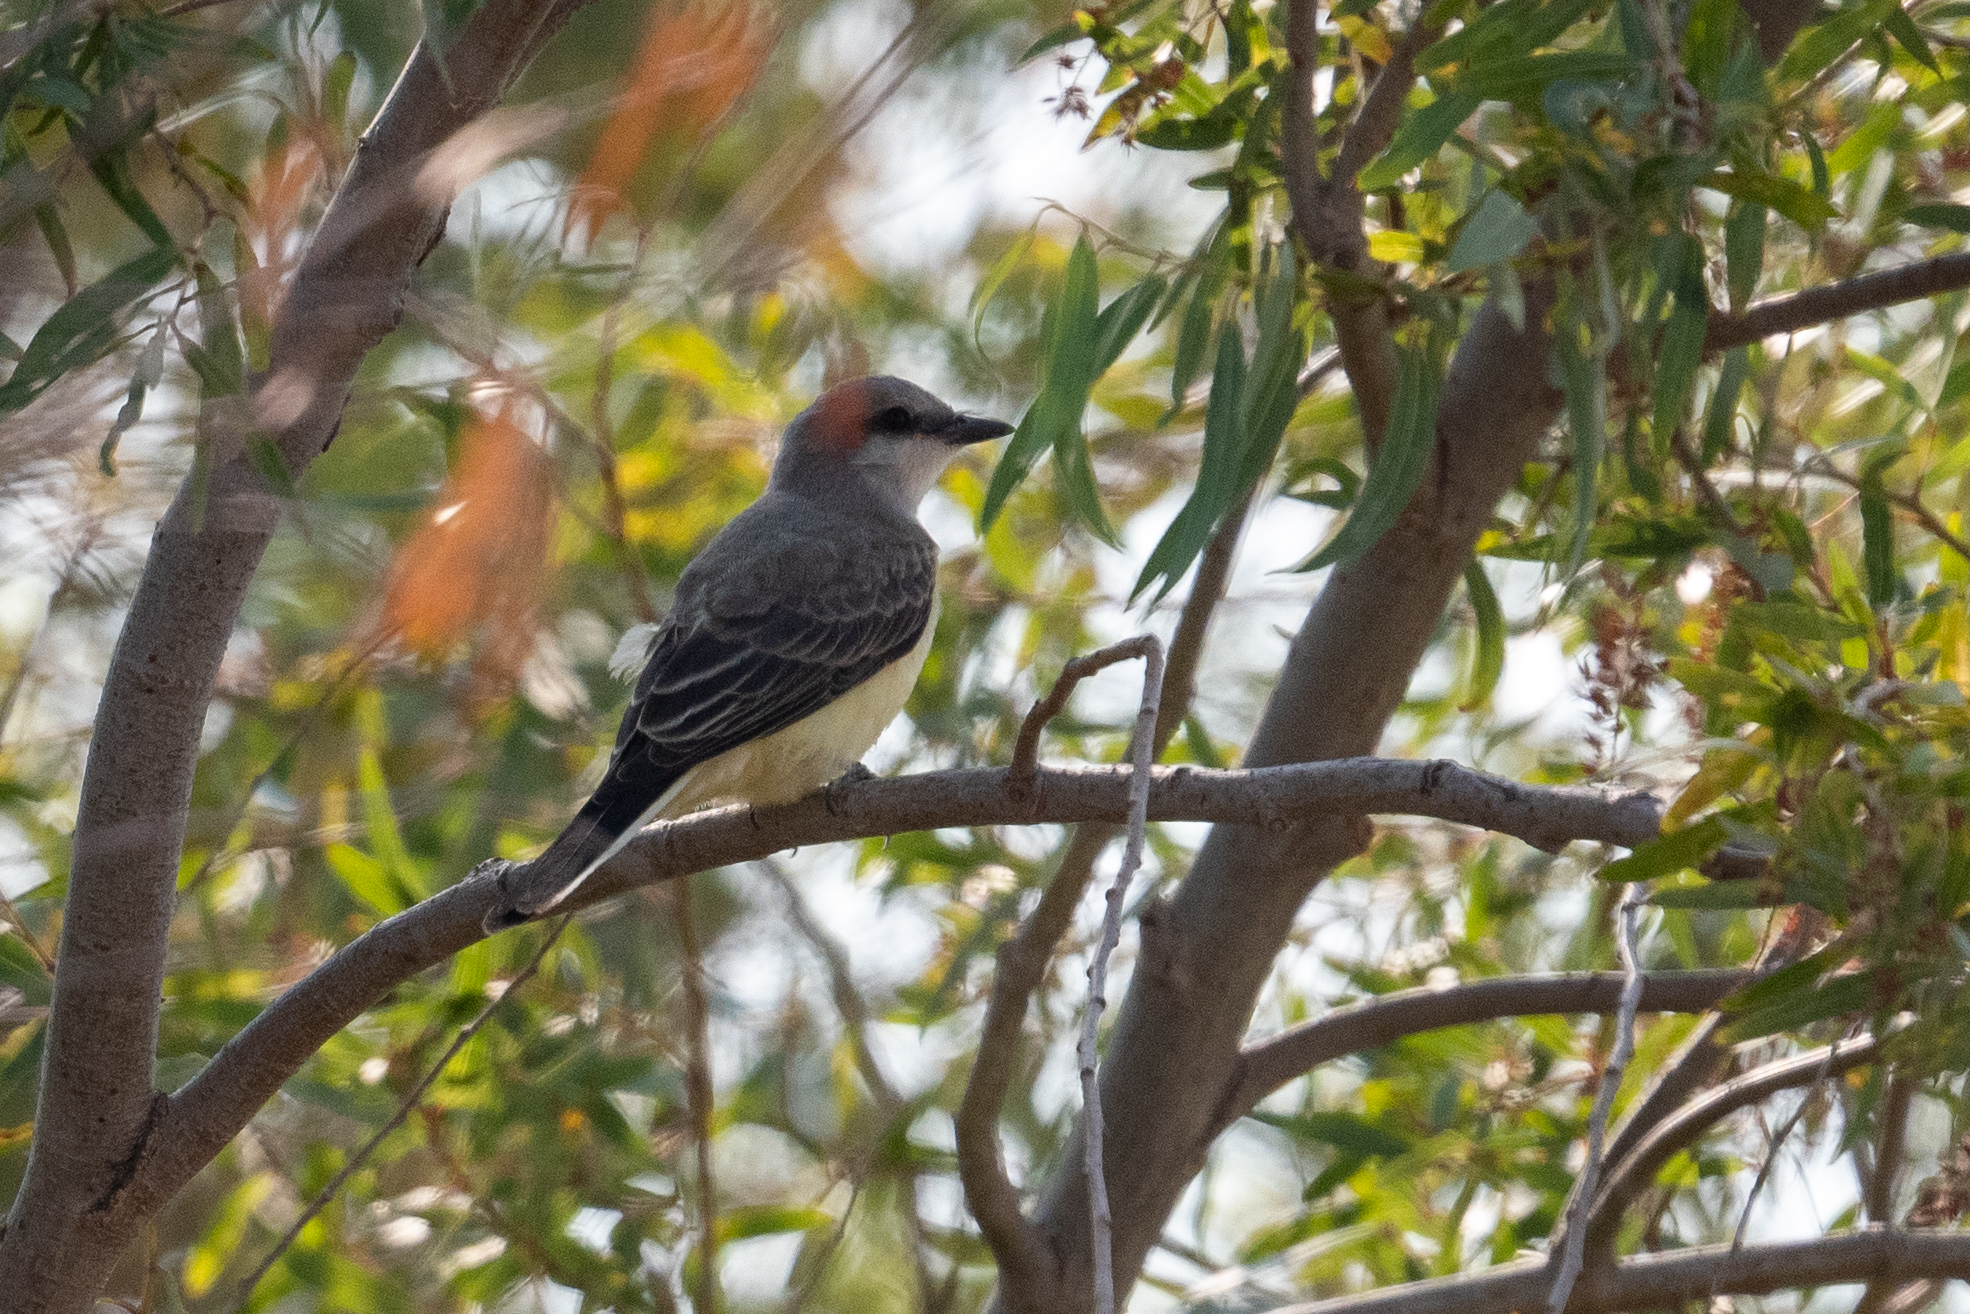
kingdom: Animalia
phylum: Chordata
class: Aves
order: Passeriformes
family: Tyrannidae
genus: Tyrannus
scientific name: Tyrannus verticalis
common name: Western kingbird
